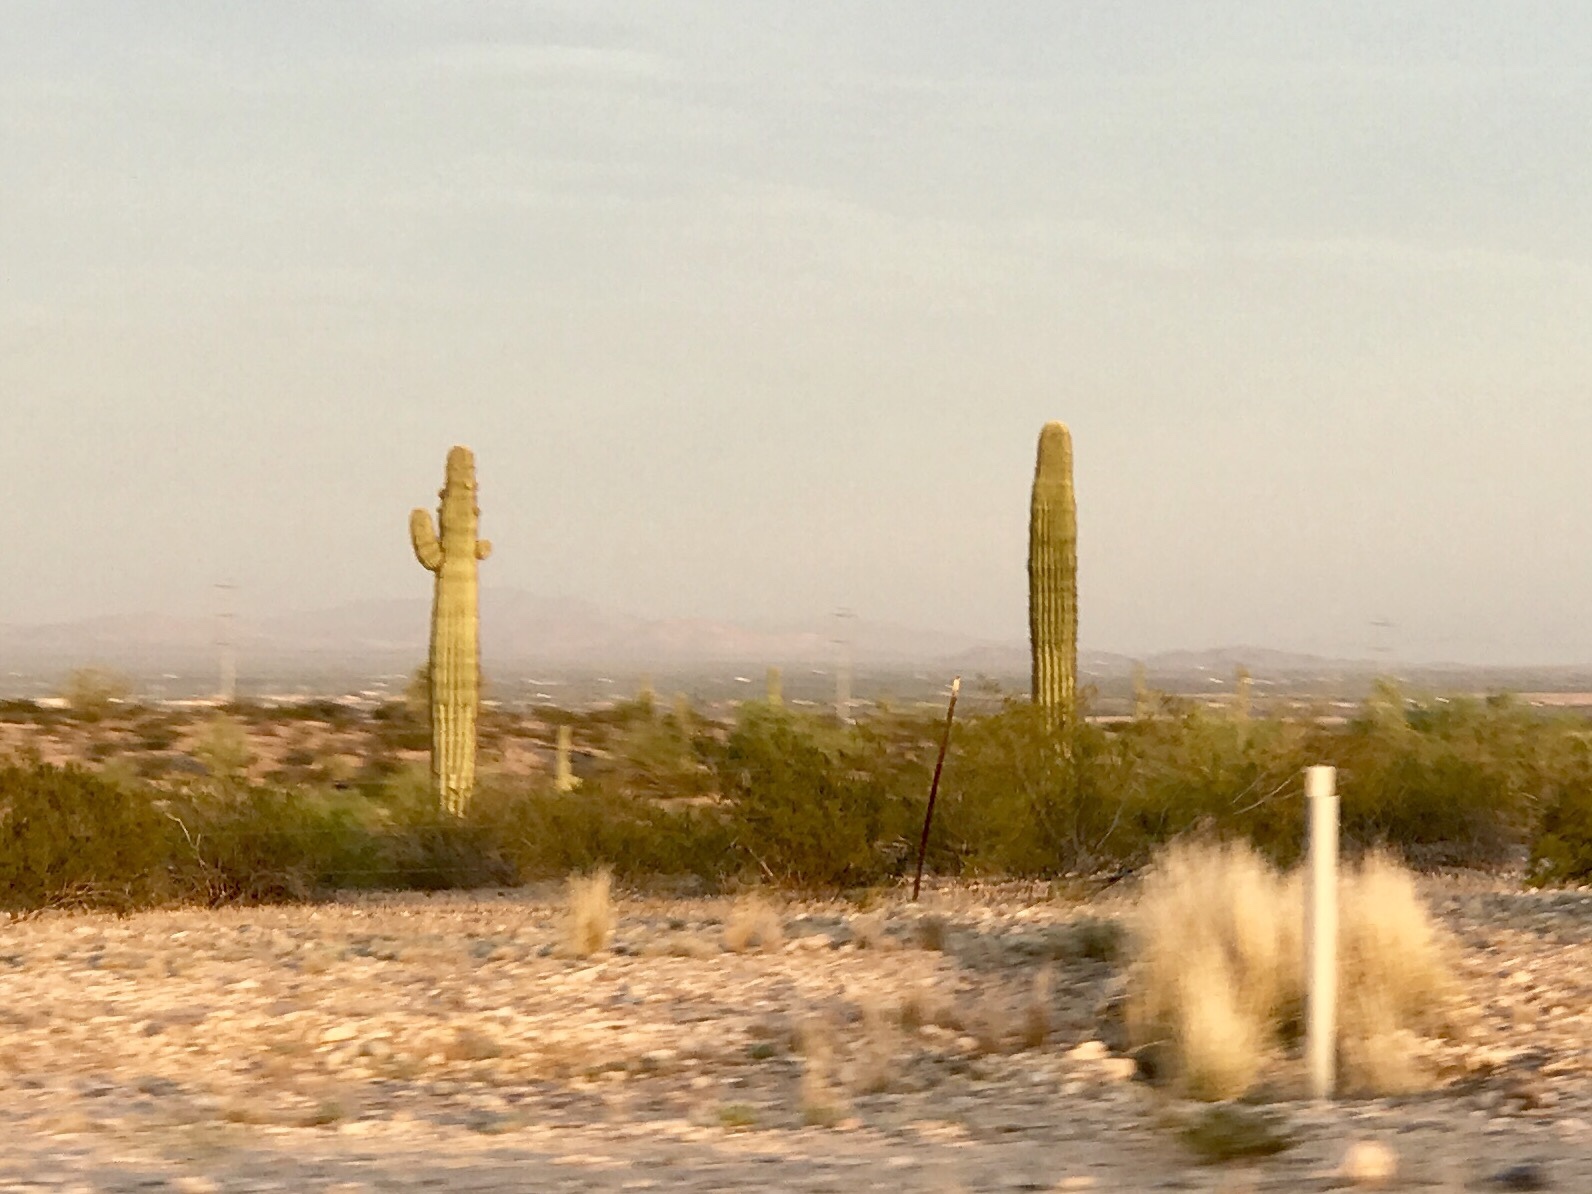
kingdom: Plantae
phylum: Tracheophyta
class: Magnoliopsida
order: Caryophyllales
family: Cactaceae
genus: Carnegiea
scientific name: Carnegiea gigantea
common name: Saguaro
